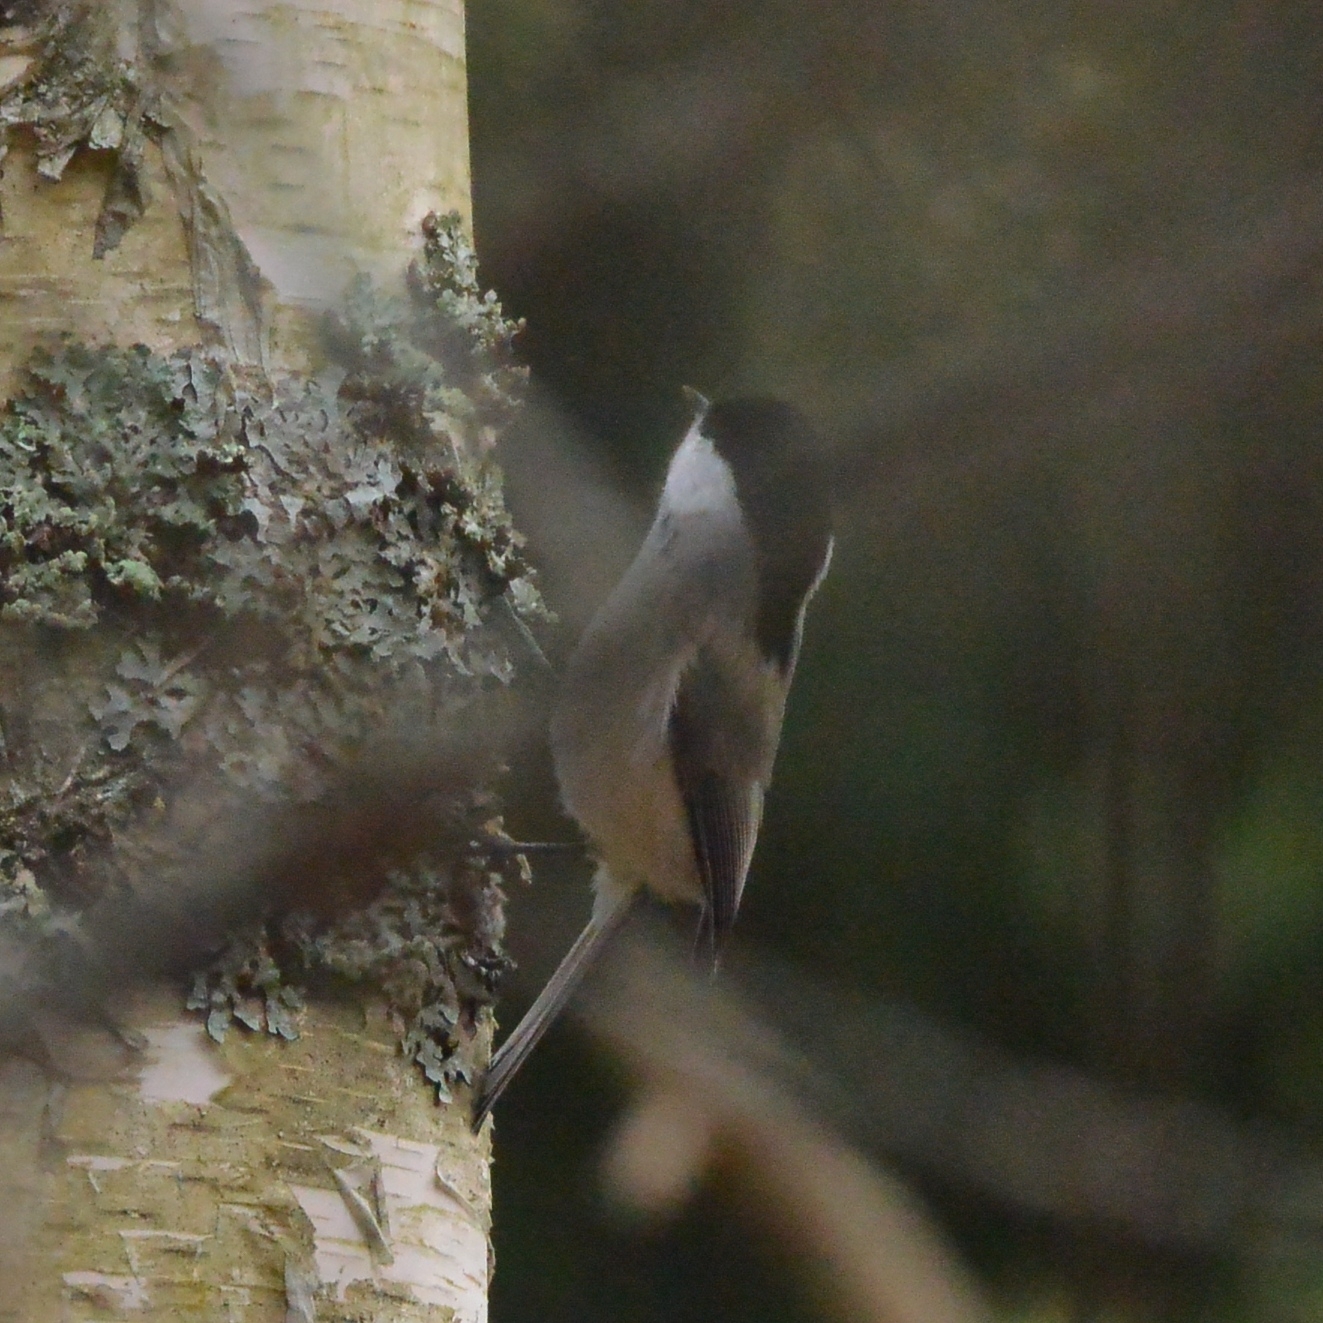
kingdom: Animalia
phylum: Chordata
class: Aves
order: Passeriformes
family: Paridae
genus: Poecile
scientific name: Poecile montanus
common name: Willow tit
